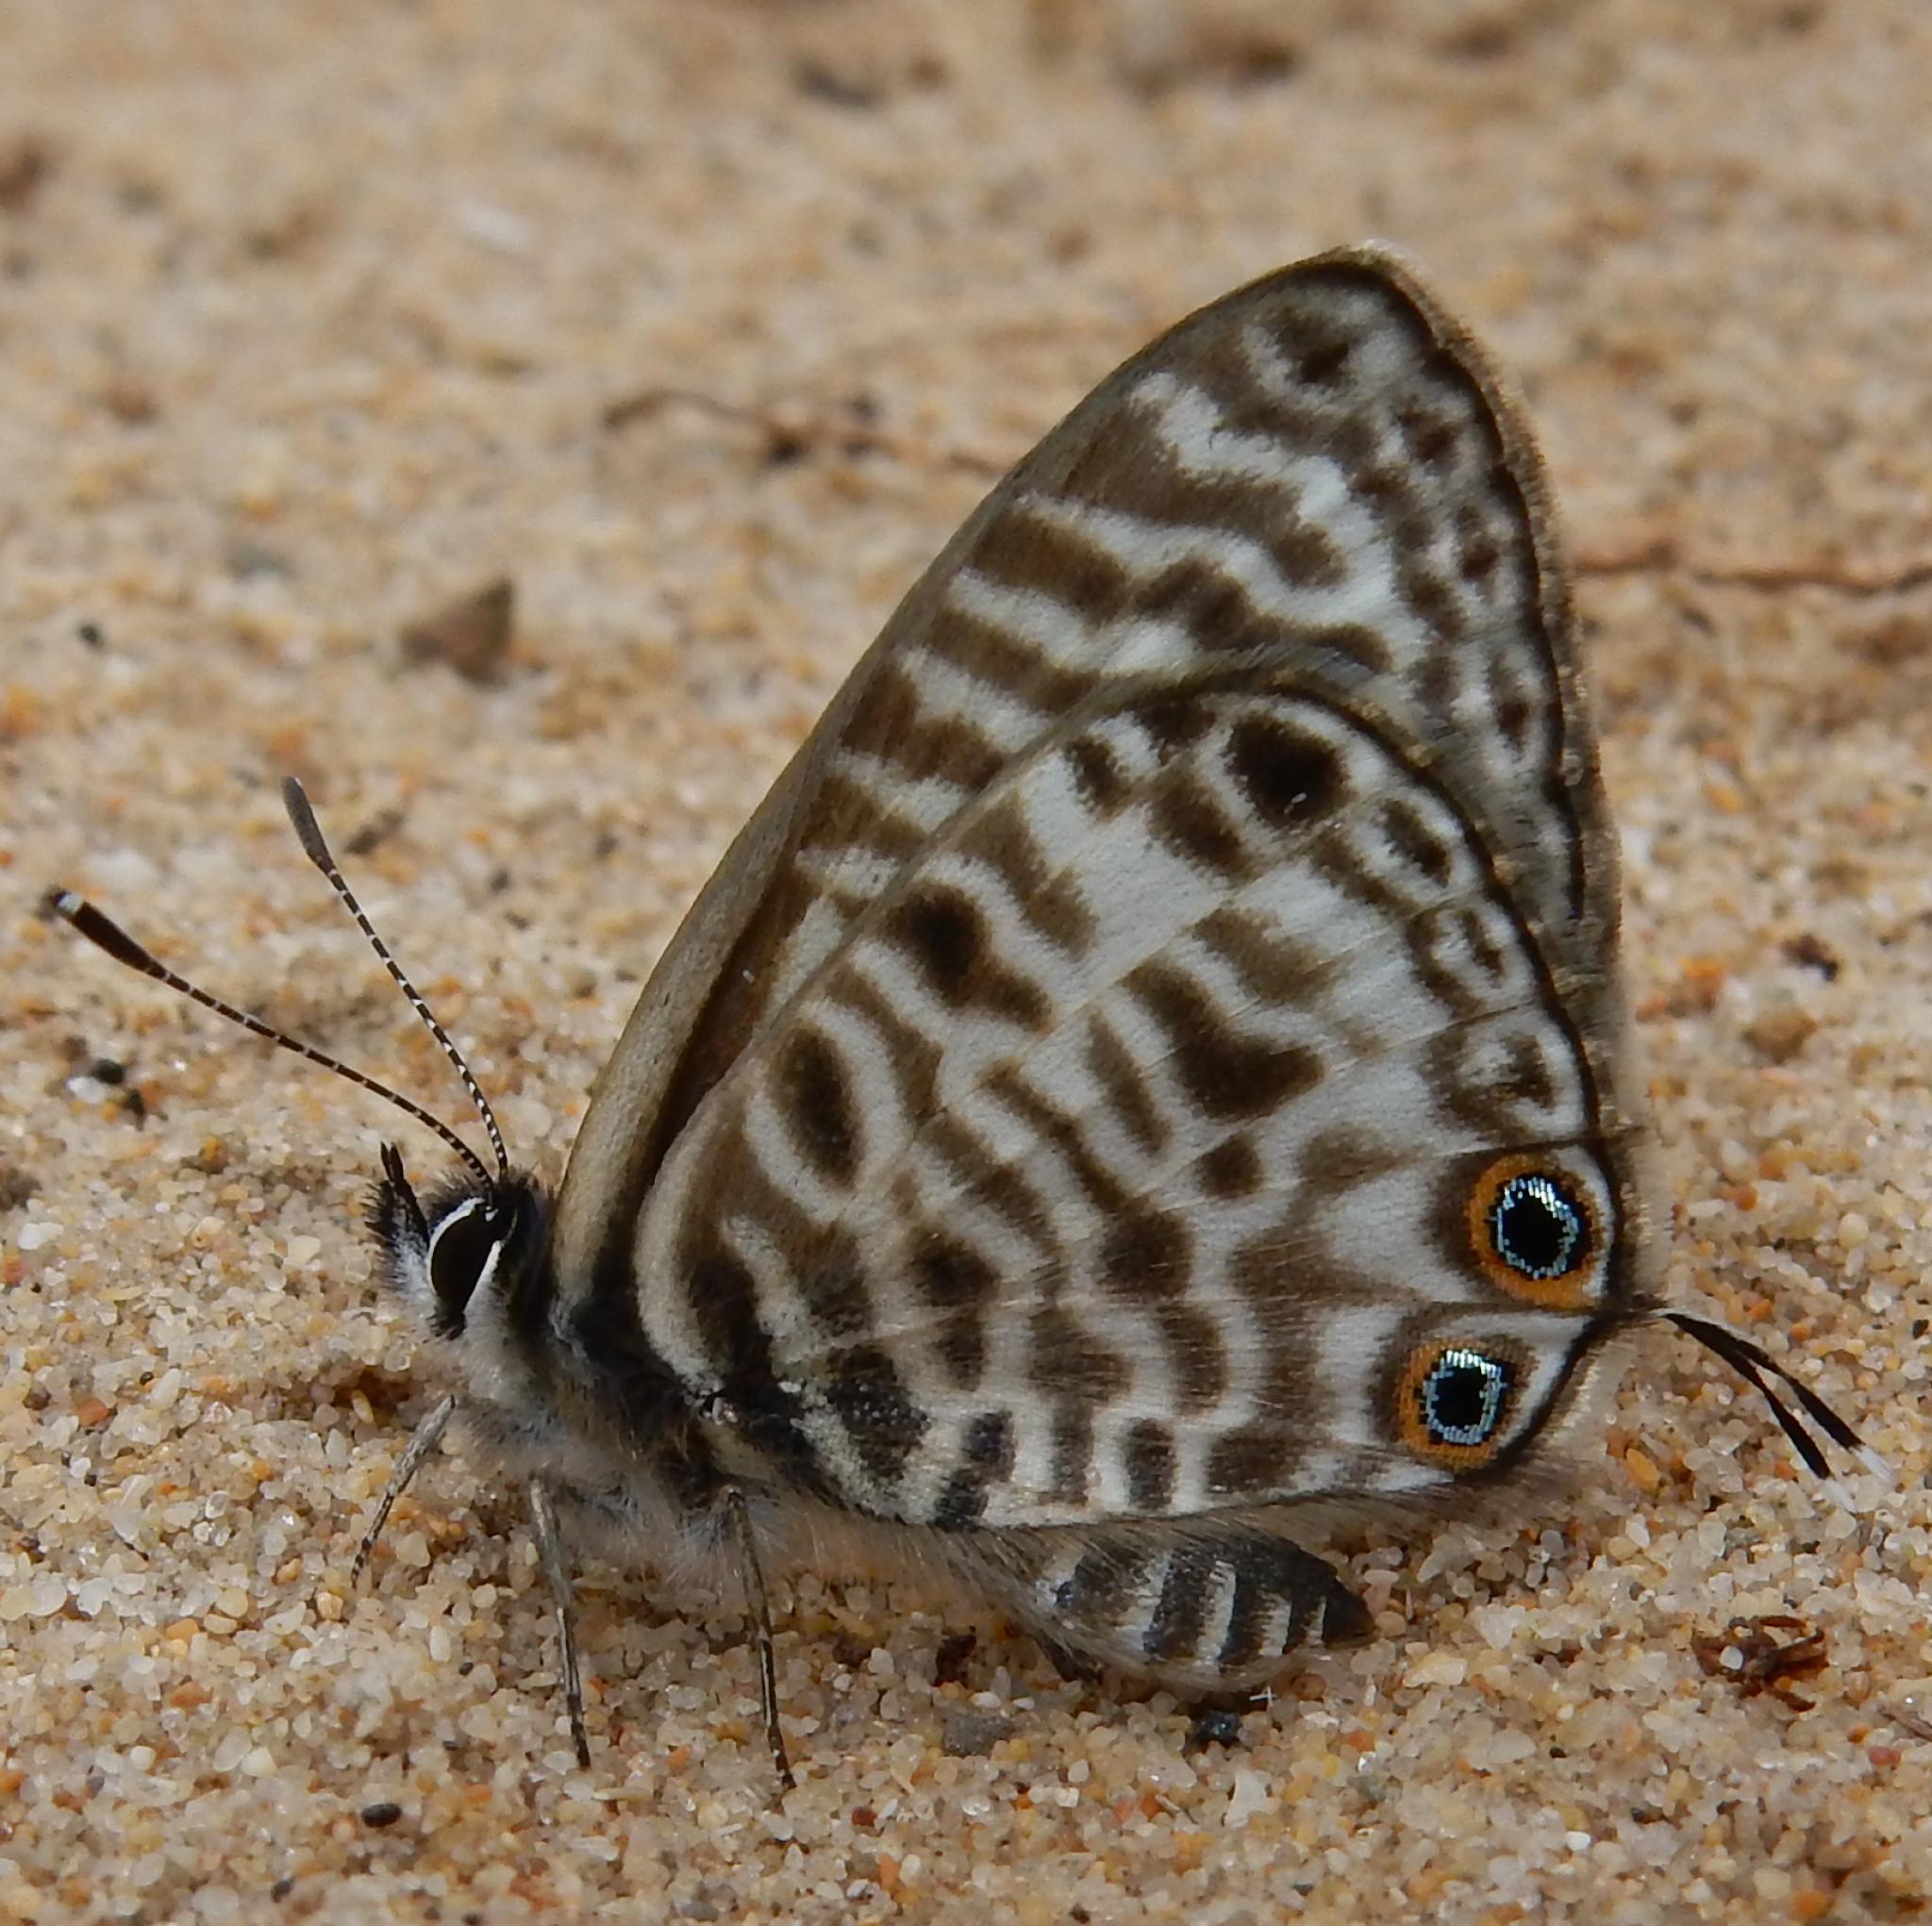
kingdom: Animalia
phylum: Arthropoda
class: Insecta
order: Lepidoptera
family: Lycaenidae
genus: Leptotes
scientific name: Leptotes
